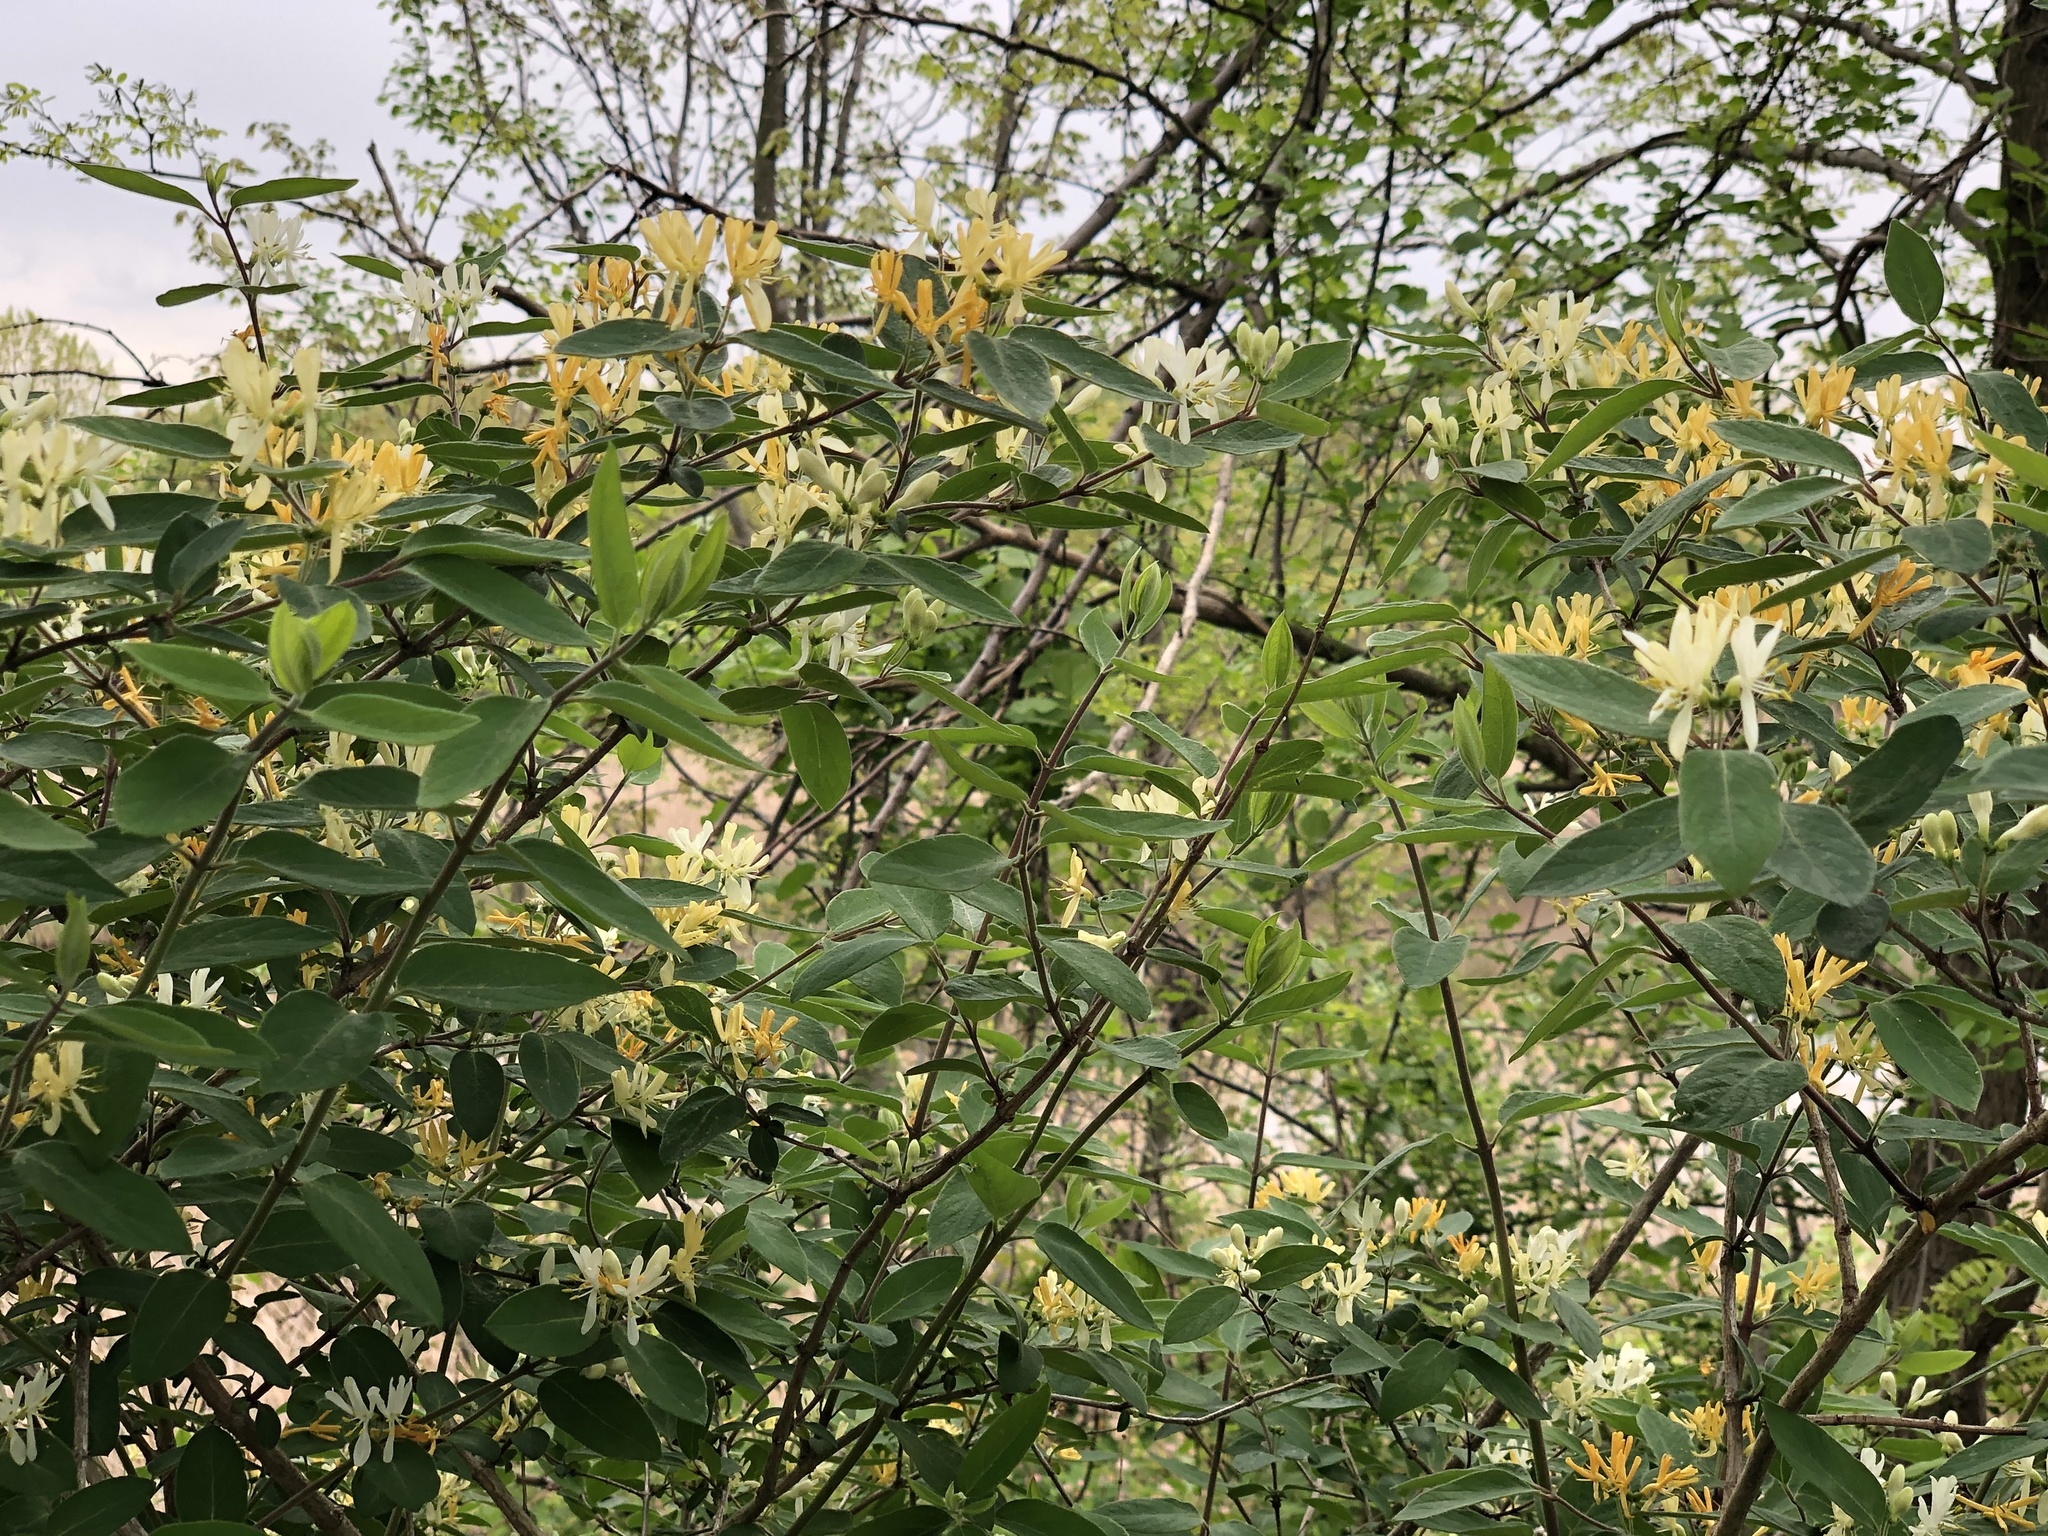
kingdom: Plantae
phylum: Tracheophyta
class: Magnoliopsida
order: Dipsacales
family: Caprifoliaceae
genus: Lonicera
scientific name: Lonicera japonica
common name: Japanese honeysuckle
